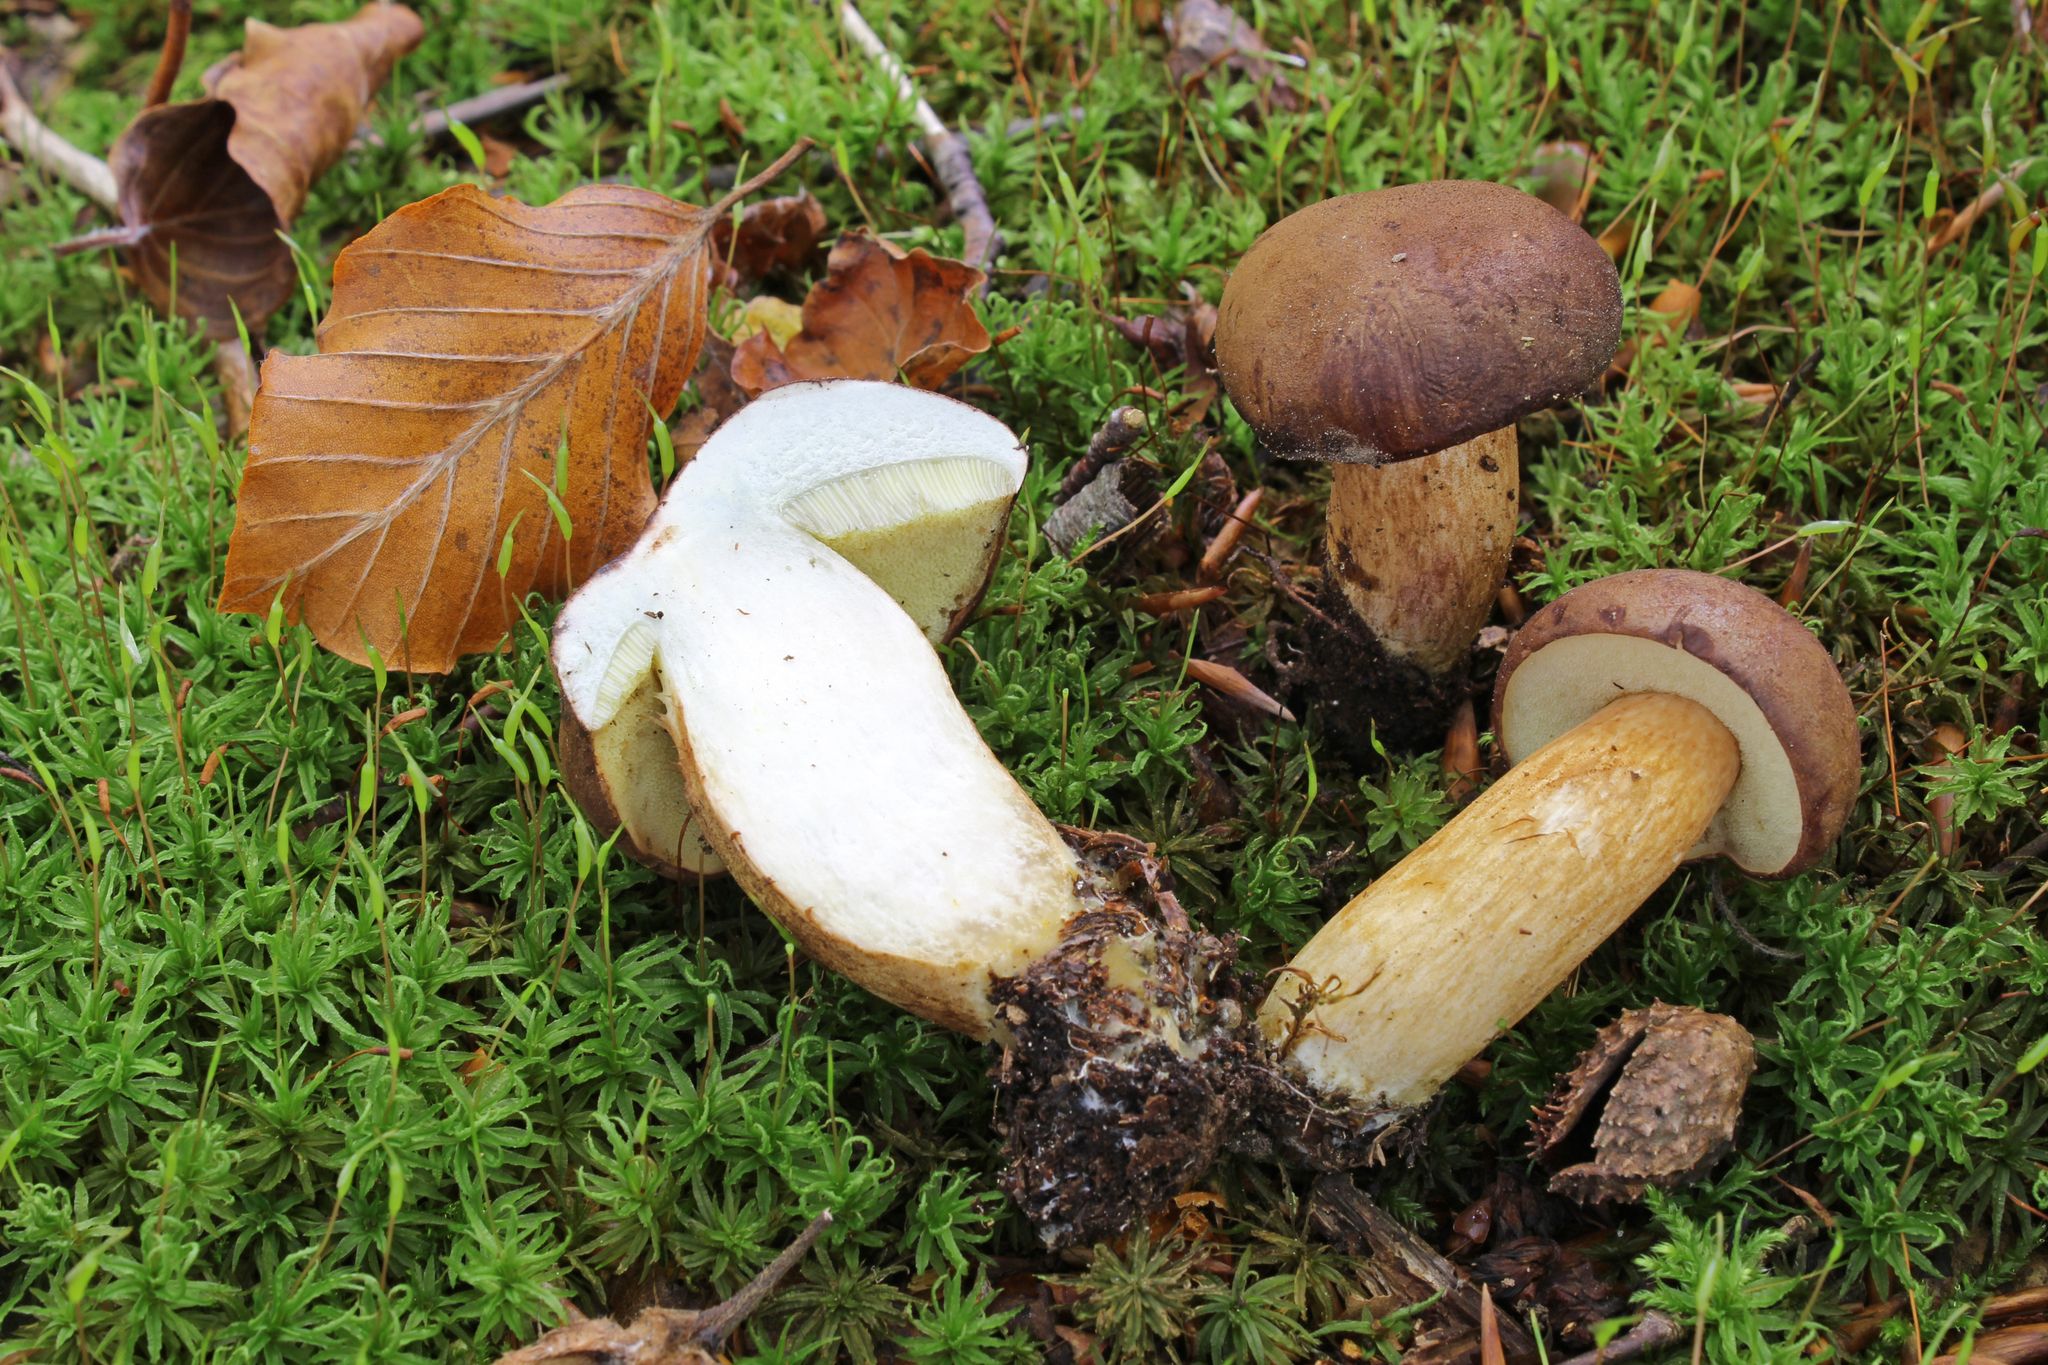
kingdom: Fungi
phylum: Basidiomycota
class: Agaricomycetes
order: Boletales
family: Boletaceae
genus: Imleria
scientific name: Imleria badia
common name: Bay bolete
